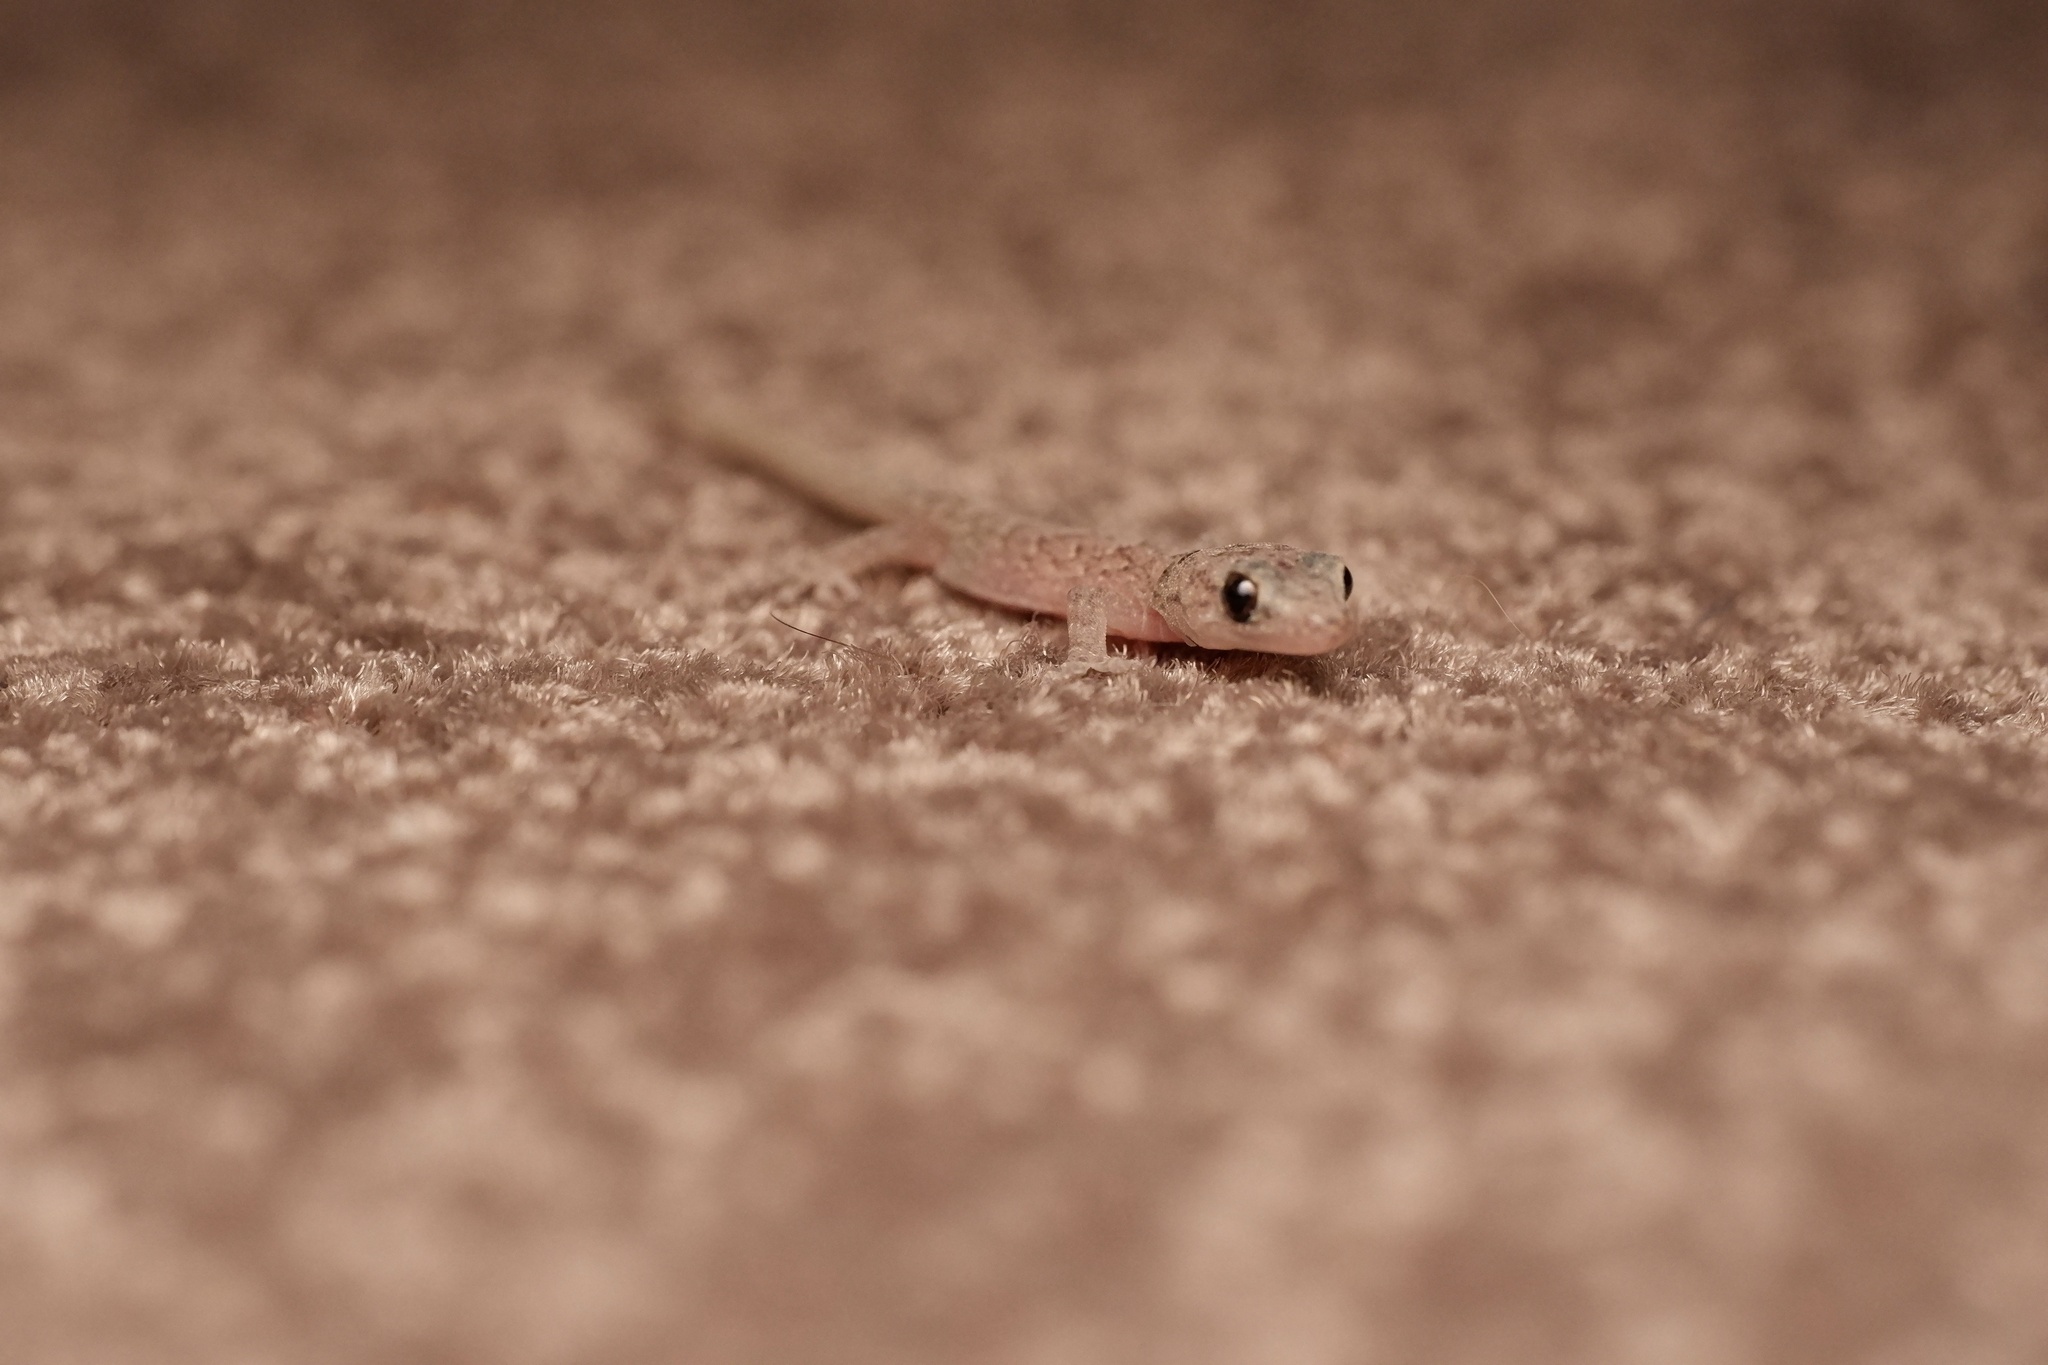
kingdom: Animalia
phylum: Chordata
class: Squamata
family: Gekkonidae
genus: Christinus
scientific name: Christinus marmoratus
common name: Marbled gecko
